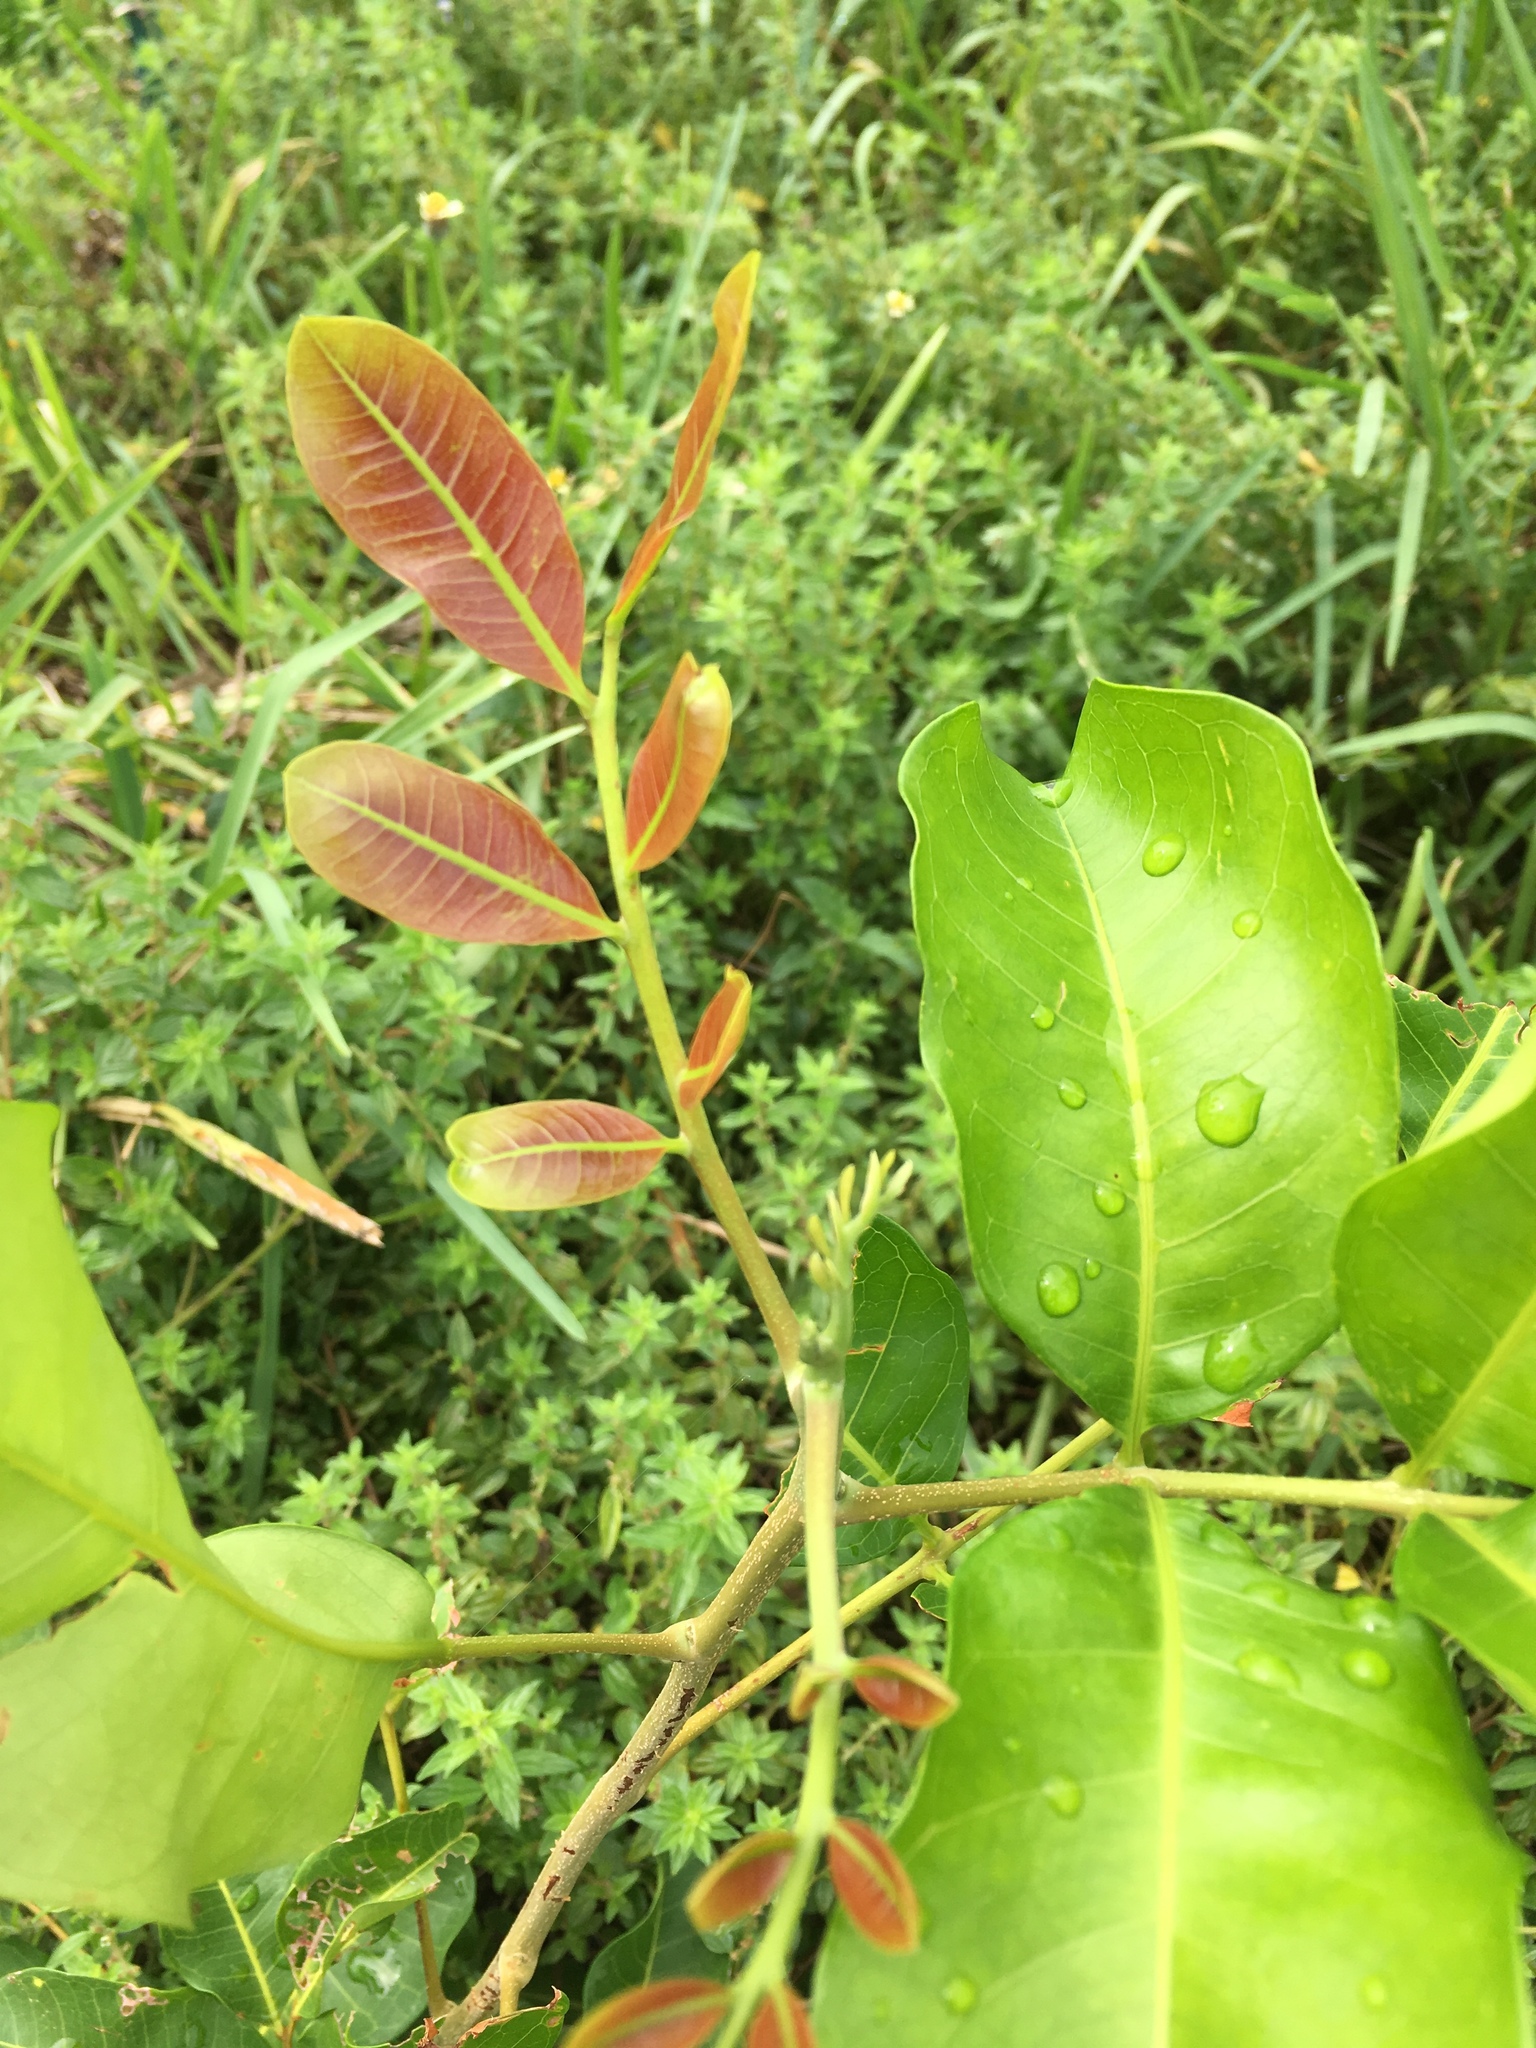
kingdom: Plantae
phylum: Tracheophyta
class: Magnoliopsida
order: Sapindales
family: Sapindaceae
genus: Cupaniopsis
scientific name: Cupaniopsis anacardioides
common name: Carrotwood
